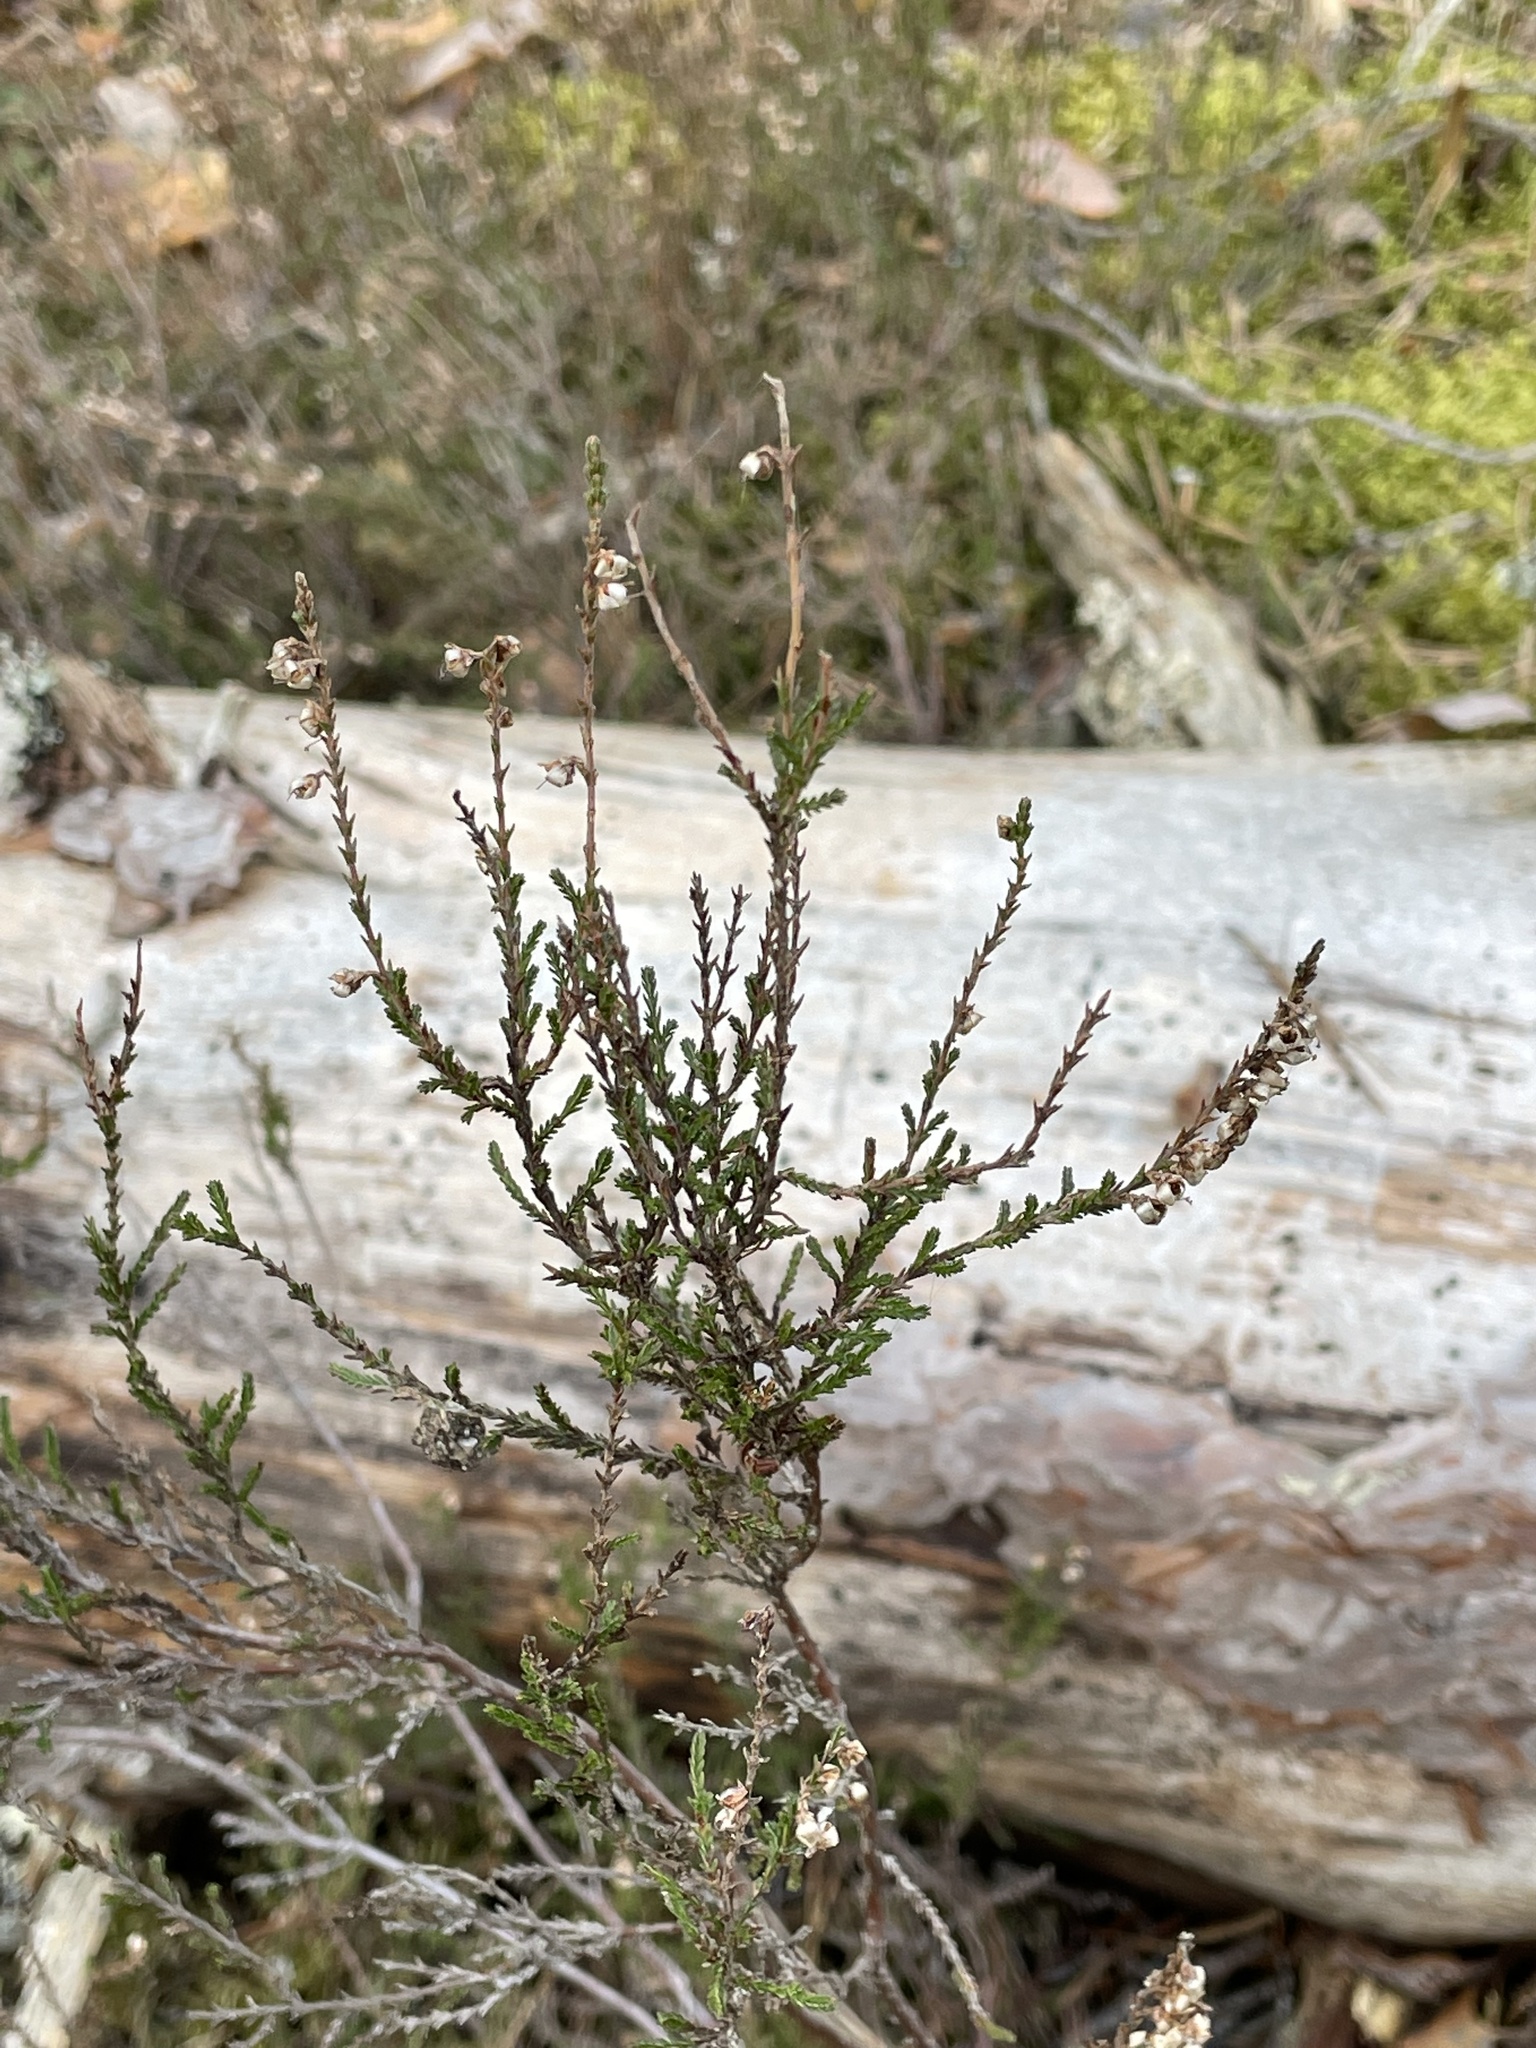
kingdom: Plantae
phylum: Tracheophyta
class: Magnoliopsida
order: Ericales
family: Ericaceae
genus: Calluna
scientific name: Calluna vulgaris
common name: Heather
